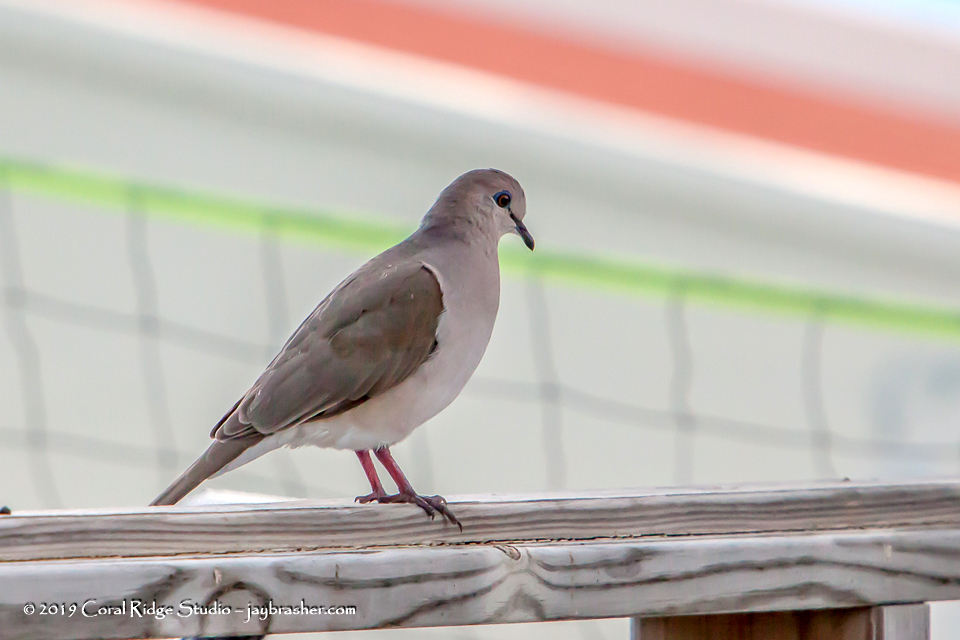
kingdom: Animalia
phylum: Chordata
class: Aves
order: Columbiformes
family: Columbidae
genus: Leptotila
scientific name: Leptotila verreauxi
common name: White-tipped dove
